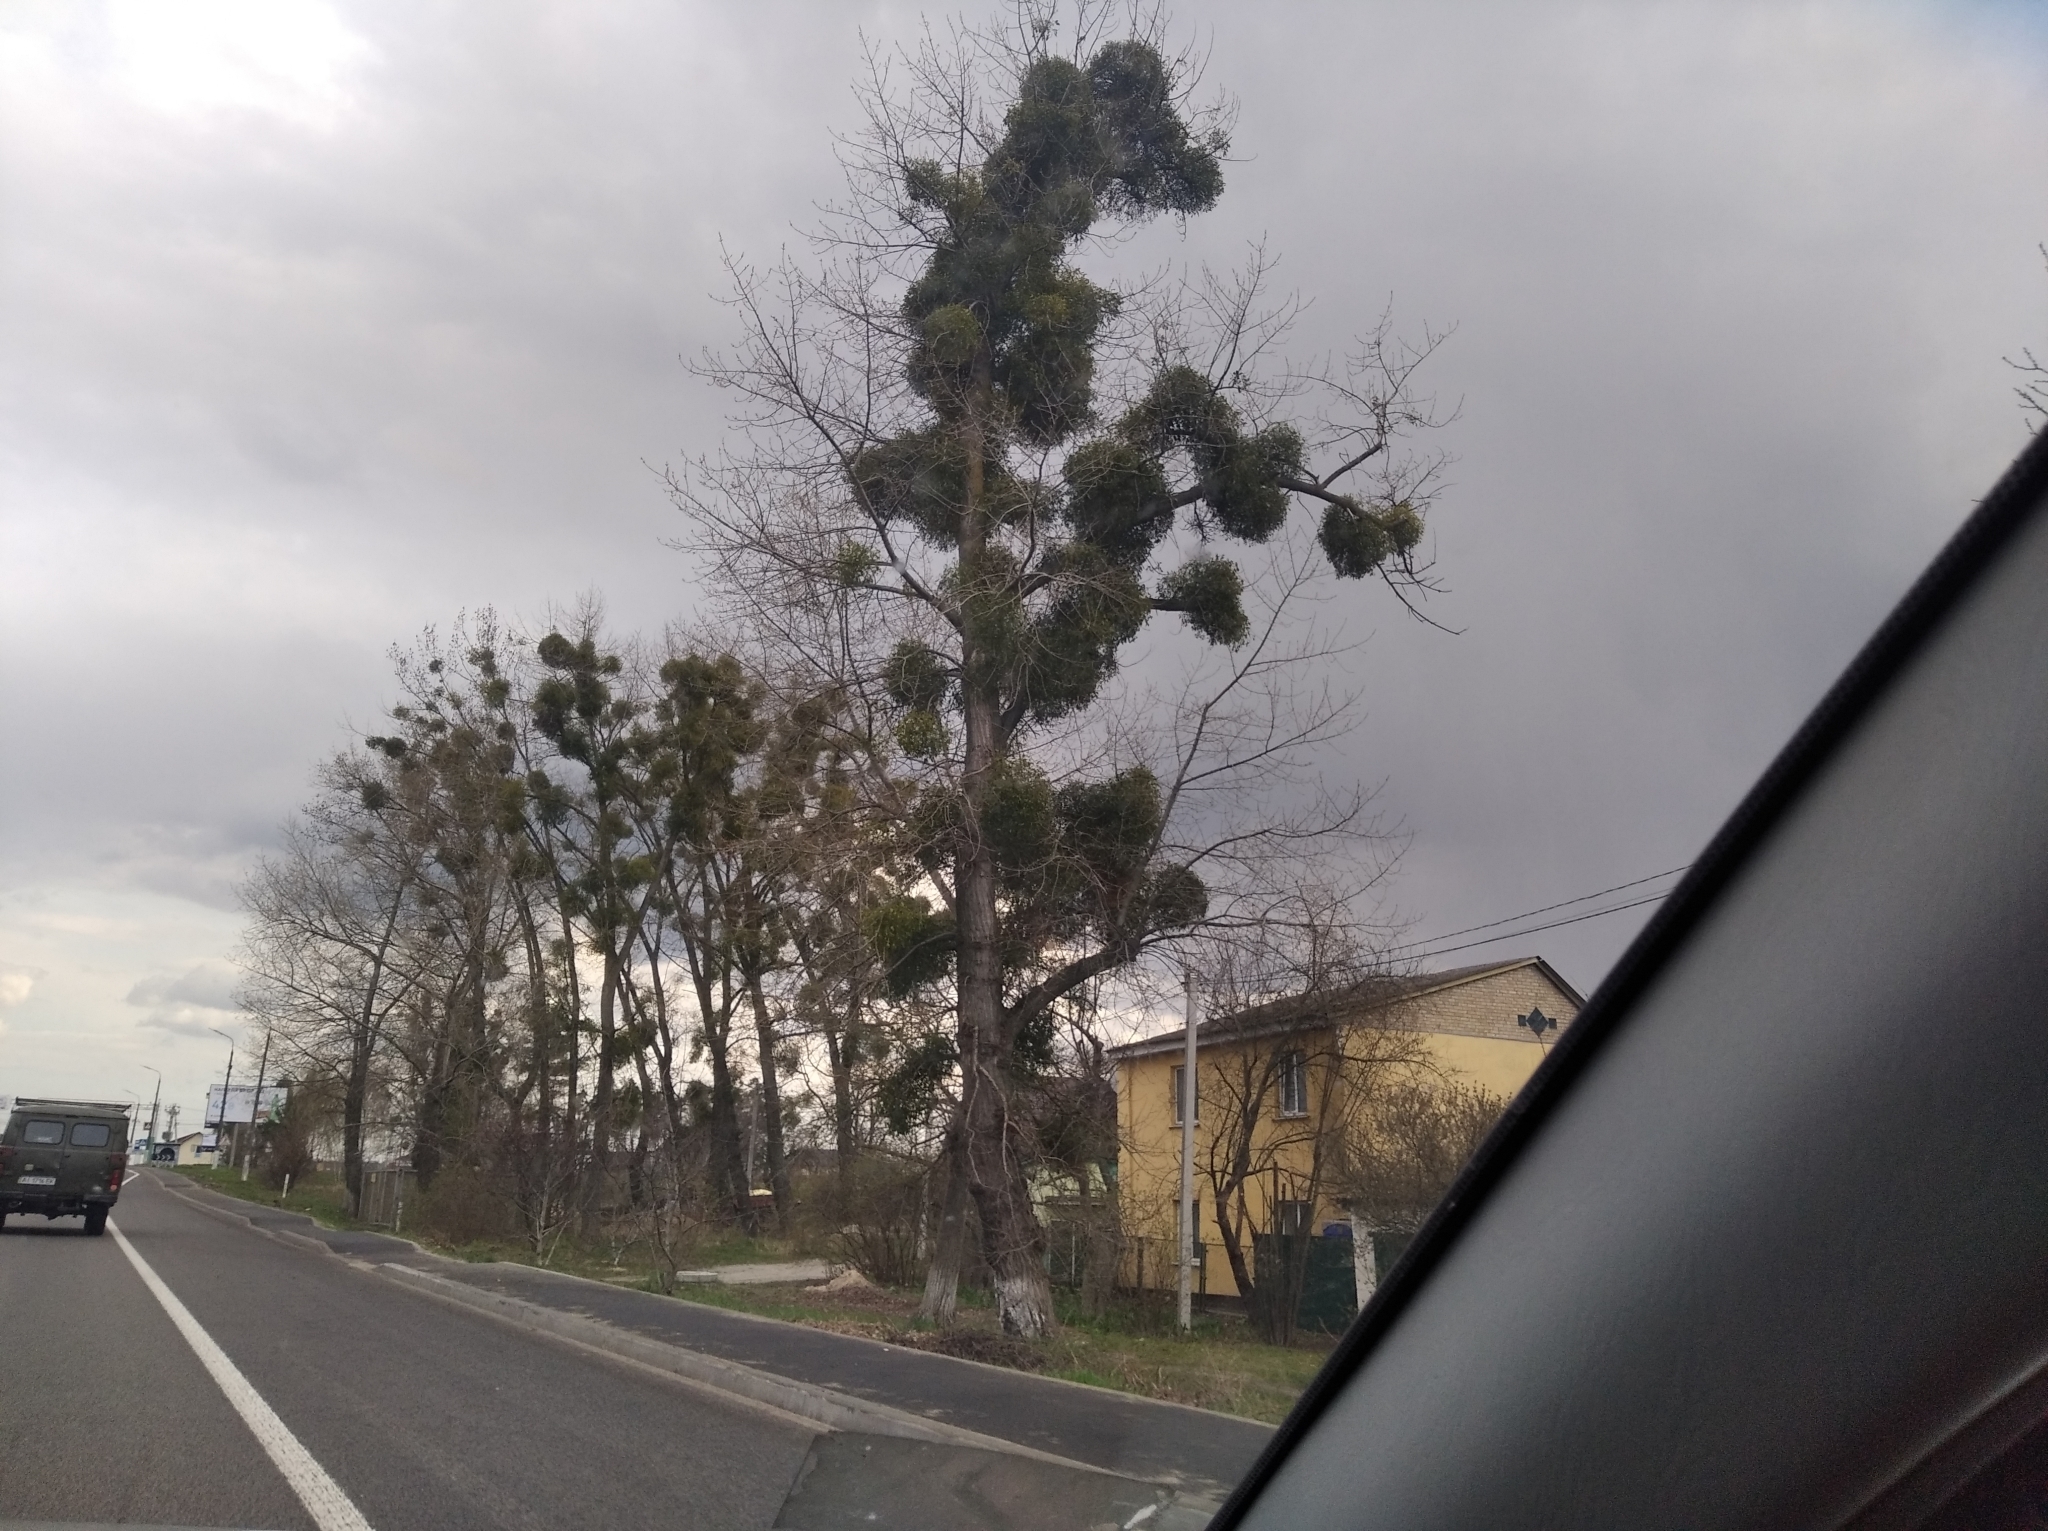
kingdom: Plantae
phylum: Tracheophyta
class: Magnoliopsida
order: Santalales
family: Viscaceae
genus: Viscum
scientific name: Viscum album
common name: Mistletoe
